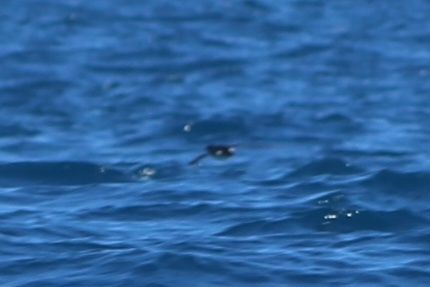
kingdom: Animalia
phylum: Chordata
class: Aves
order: Procellariiformes
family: Procellariidae
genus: Puffinus
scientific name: Puffinus gavia
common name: Fluttering shearwater
